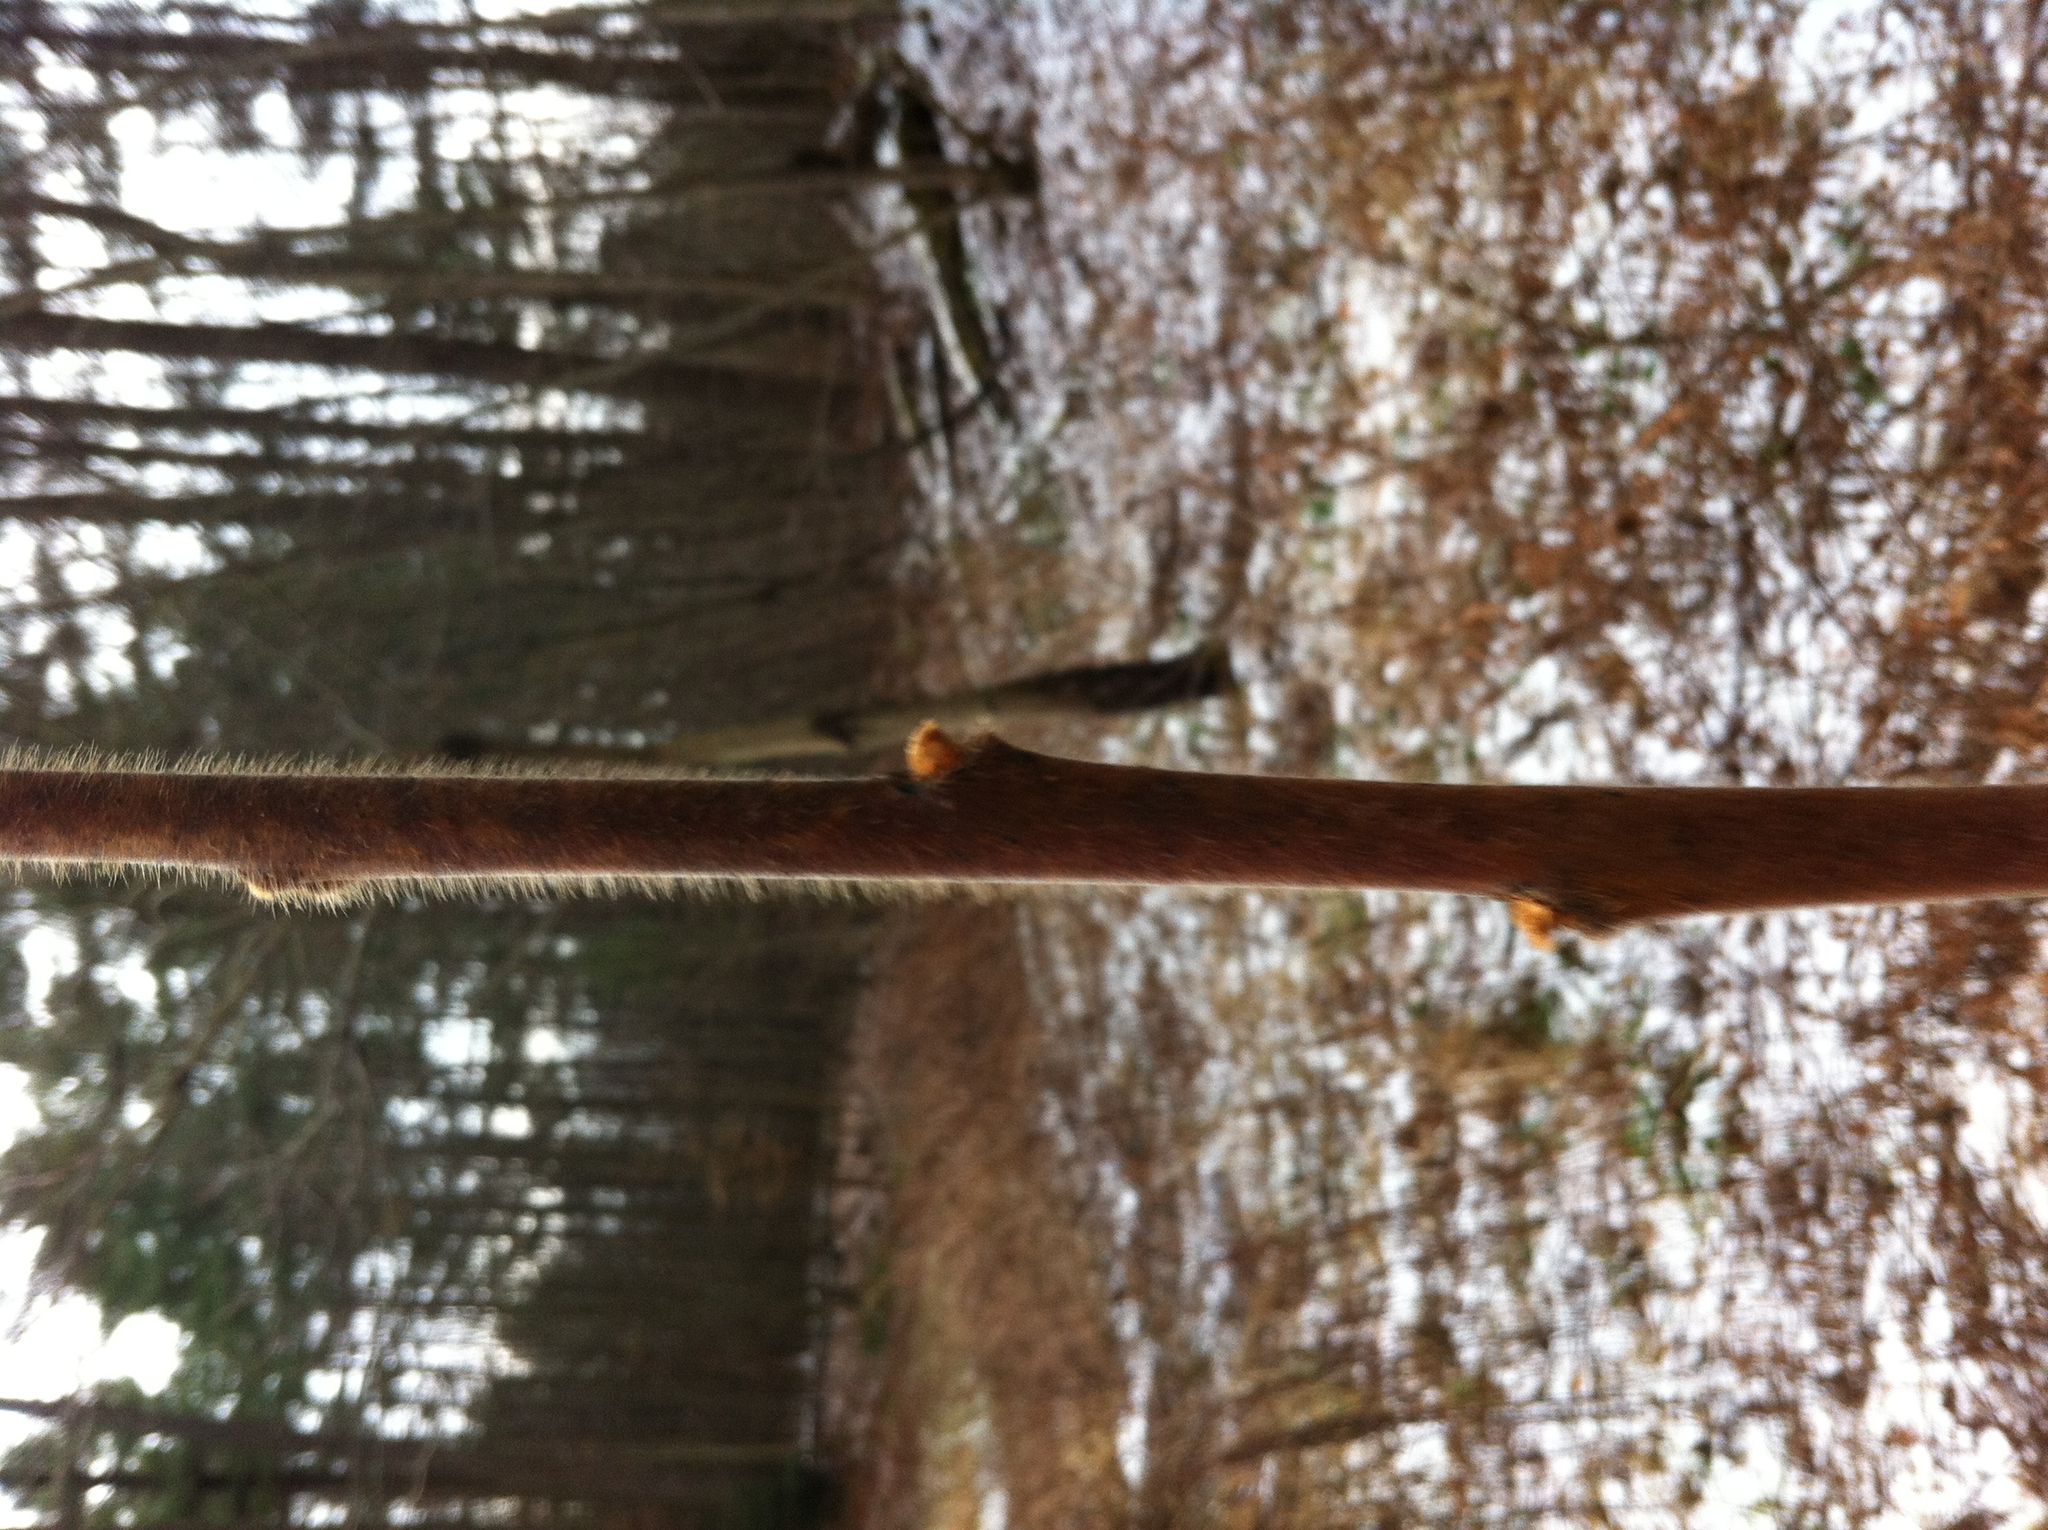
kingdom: Plantae
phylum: Tracheophyta
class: Magnoliopsida
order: Sapindales
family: Anacardiaceae
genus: Rhus
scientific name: Rhus typhina
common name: Staghorn sumac
